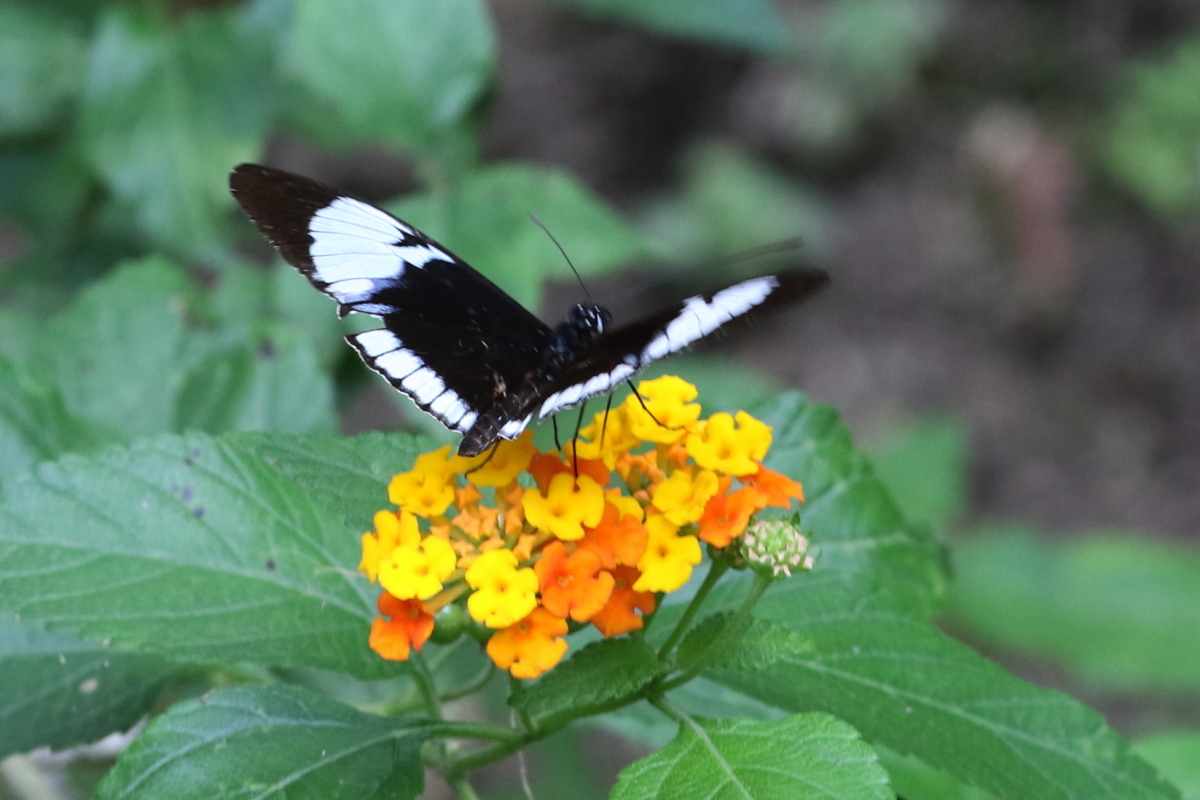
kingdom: Animalia
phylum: Arthropoda
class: Insecta
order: Lepidoptera
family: Nymphalidae
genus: Heliconius
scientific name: Heliconius cydno
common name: Cydno longwing
